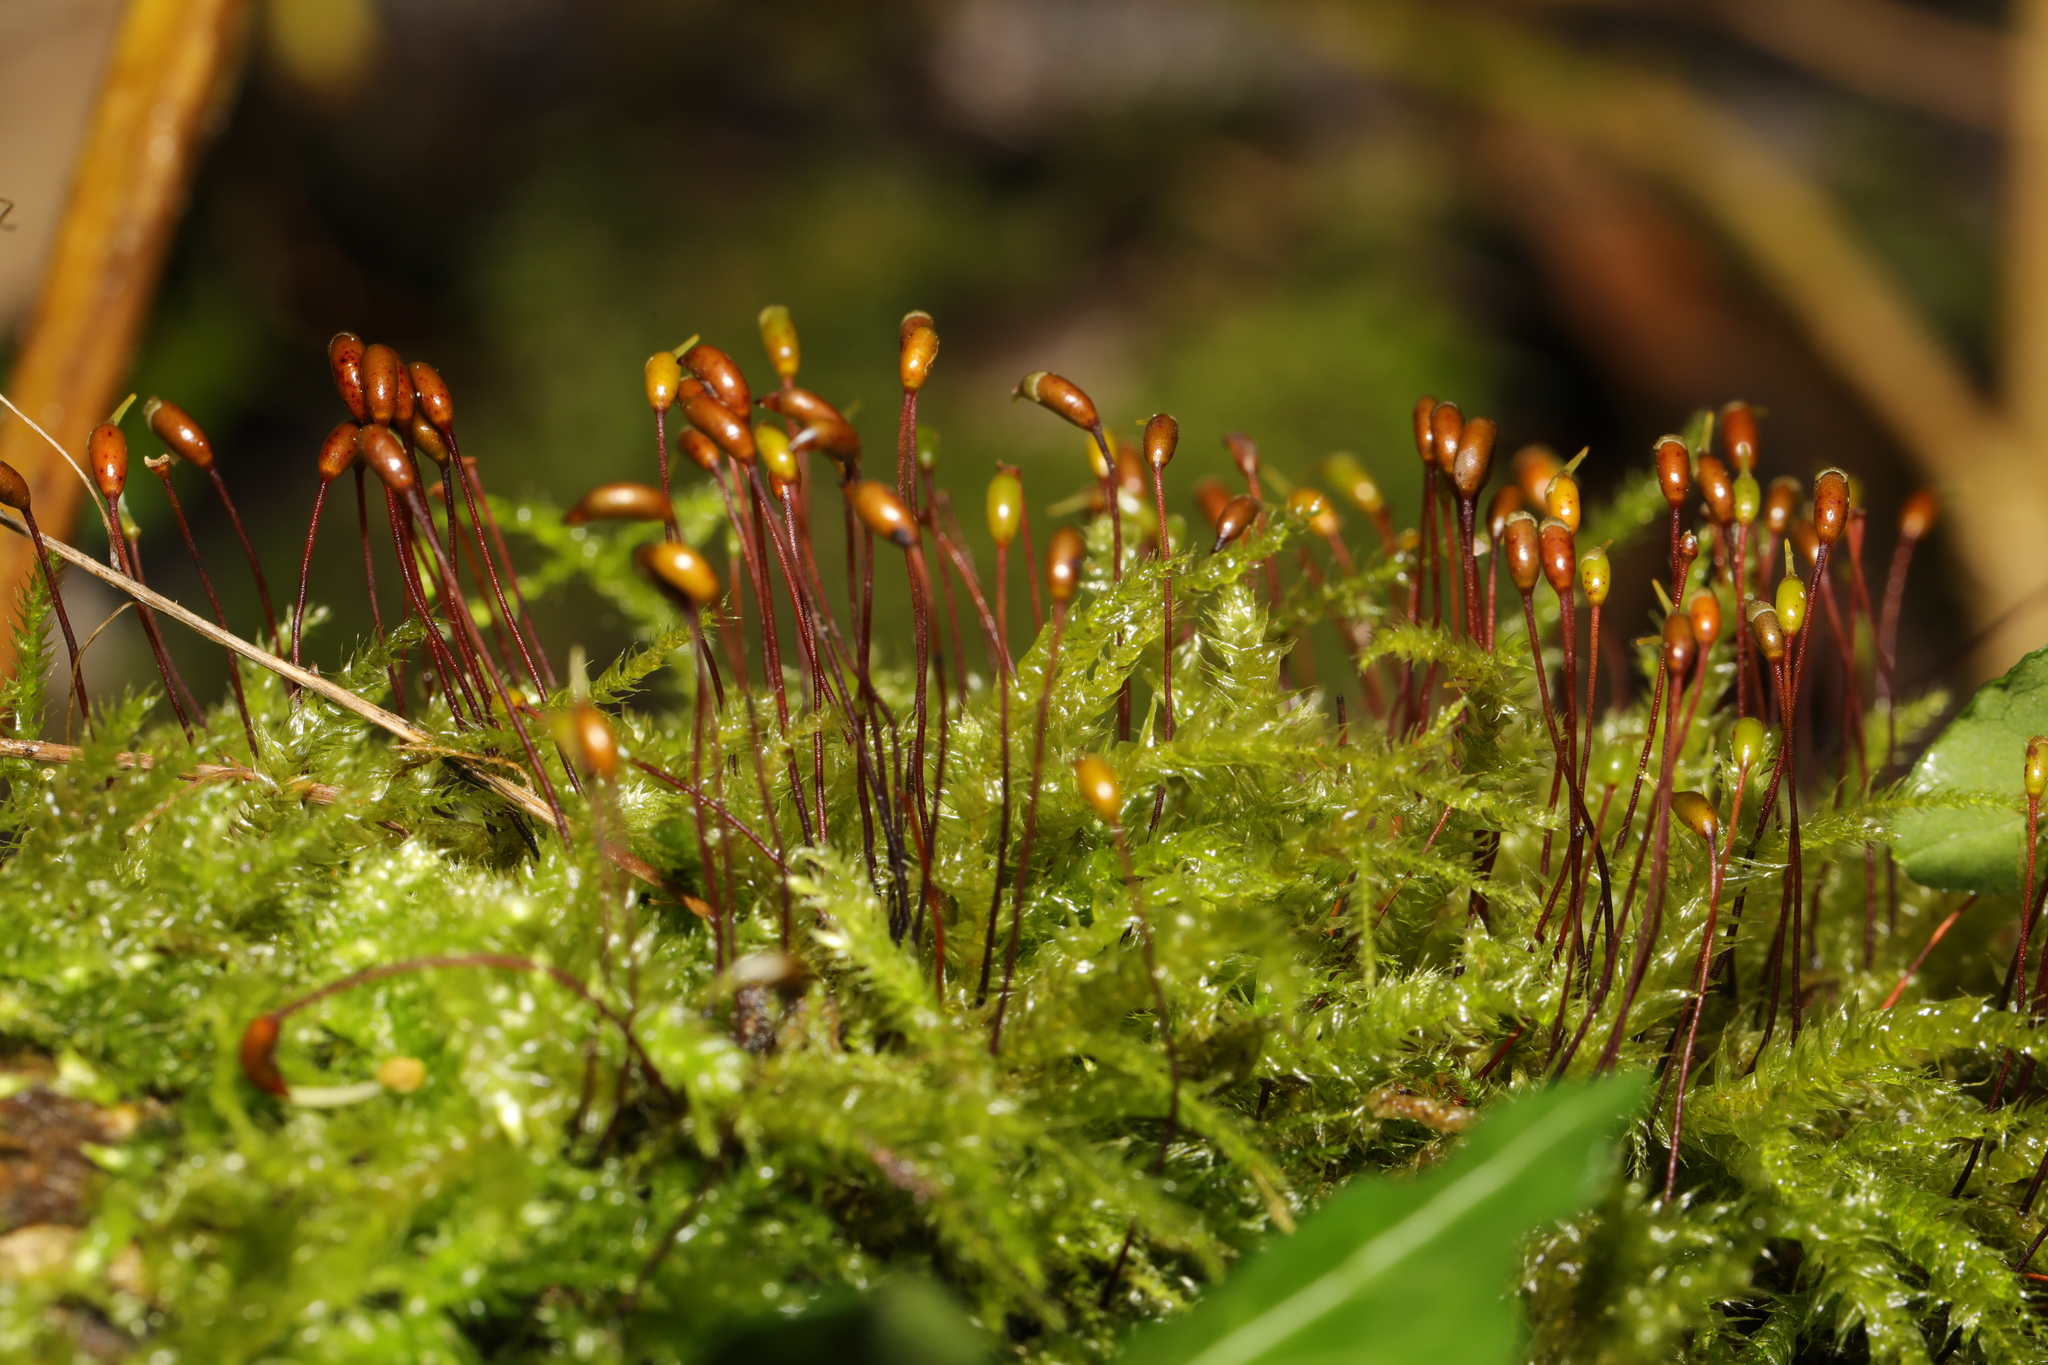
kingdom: Plantae
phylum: Bryophyta
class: Bryopsida
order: Hypnales
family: Brachytheciaceae
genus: Brachythecium
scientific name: Brachythecium rutabulum
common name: Rough-stalked feather-moss
